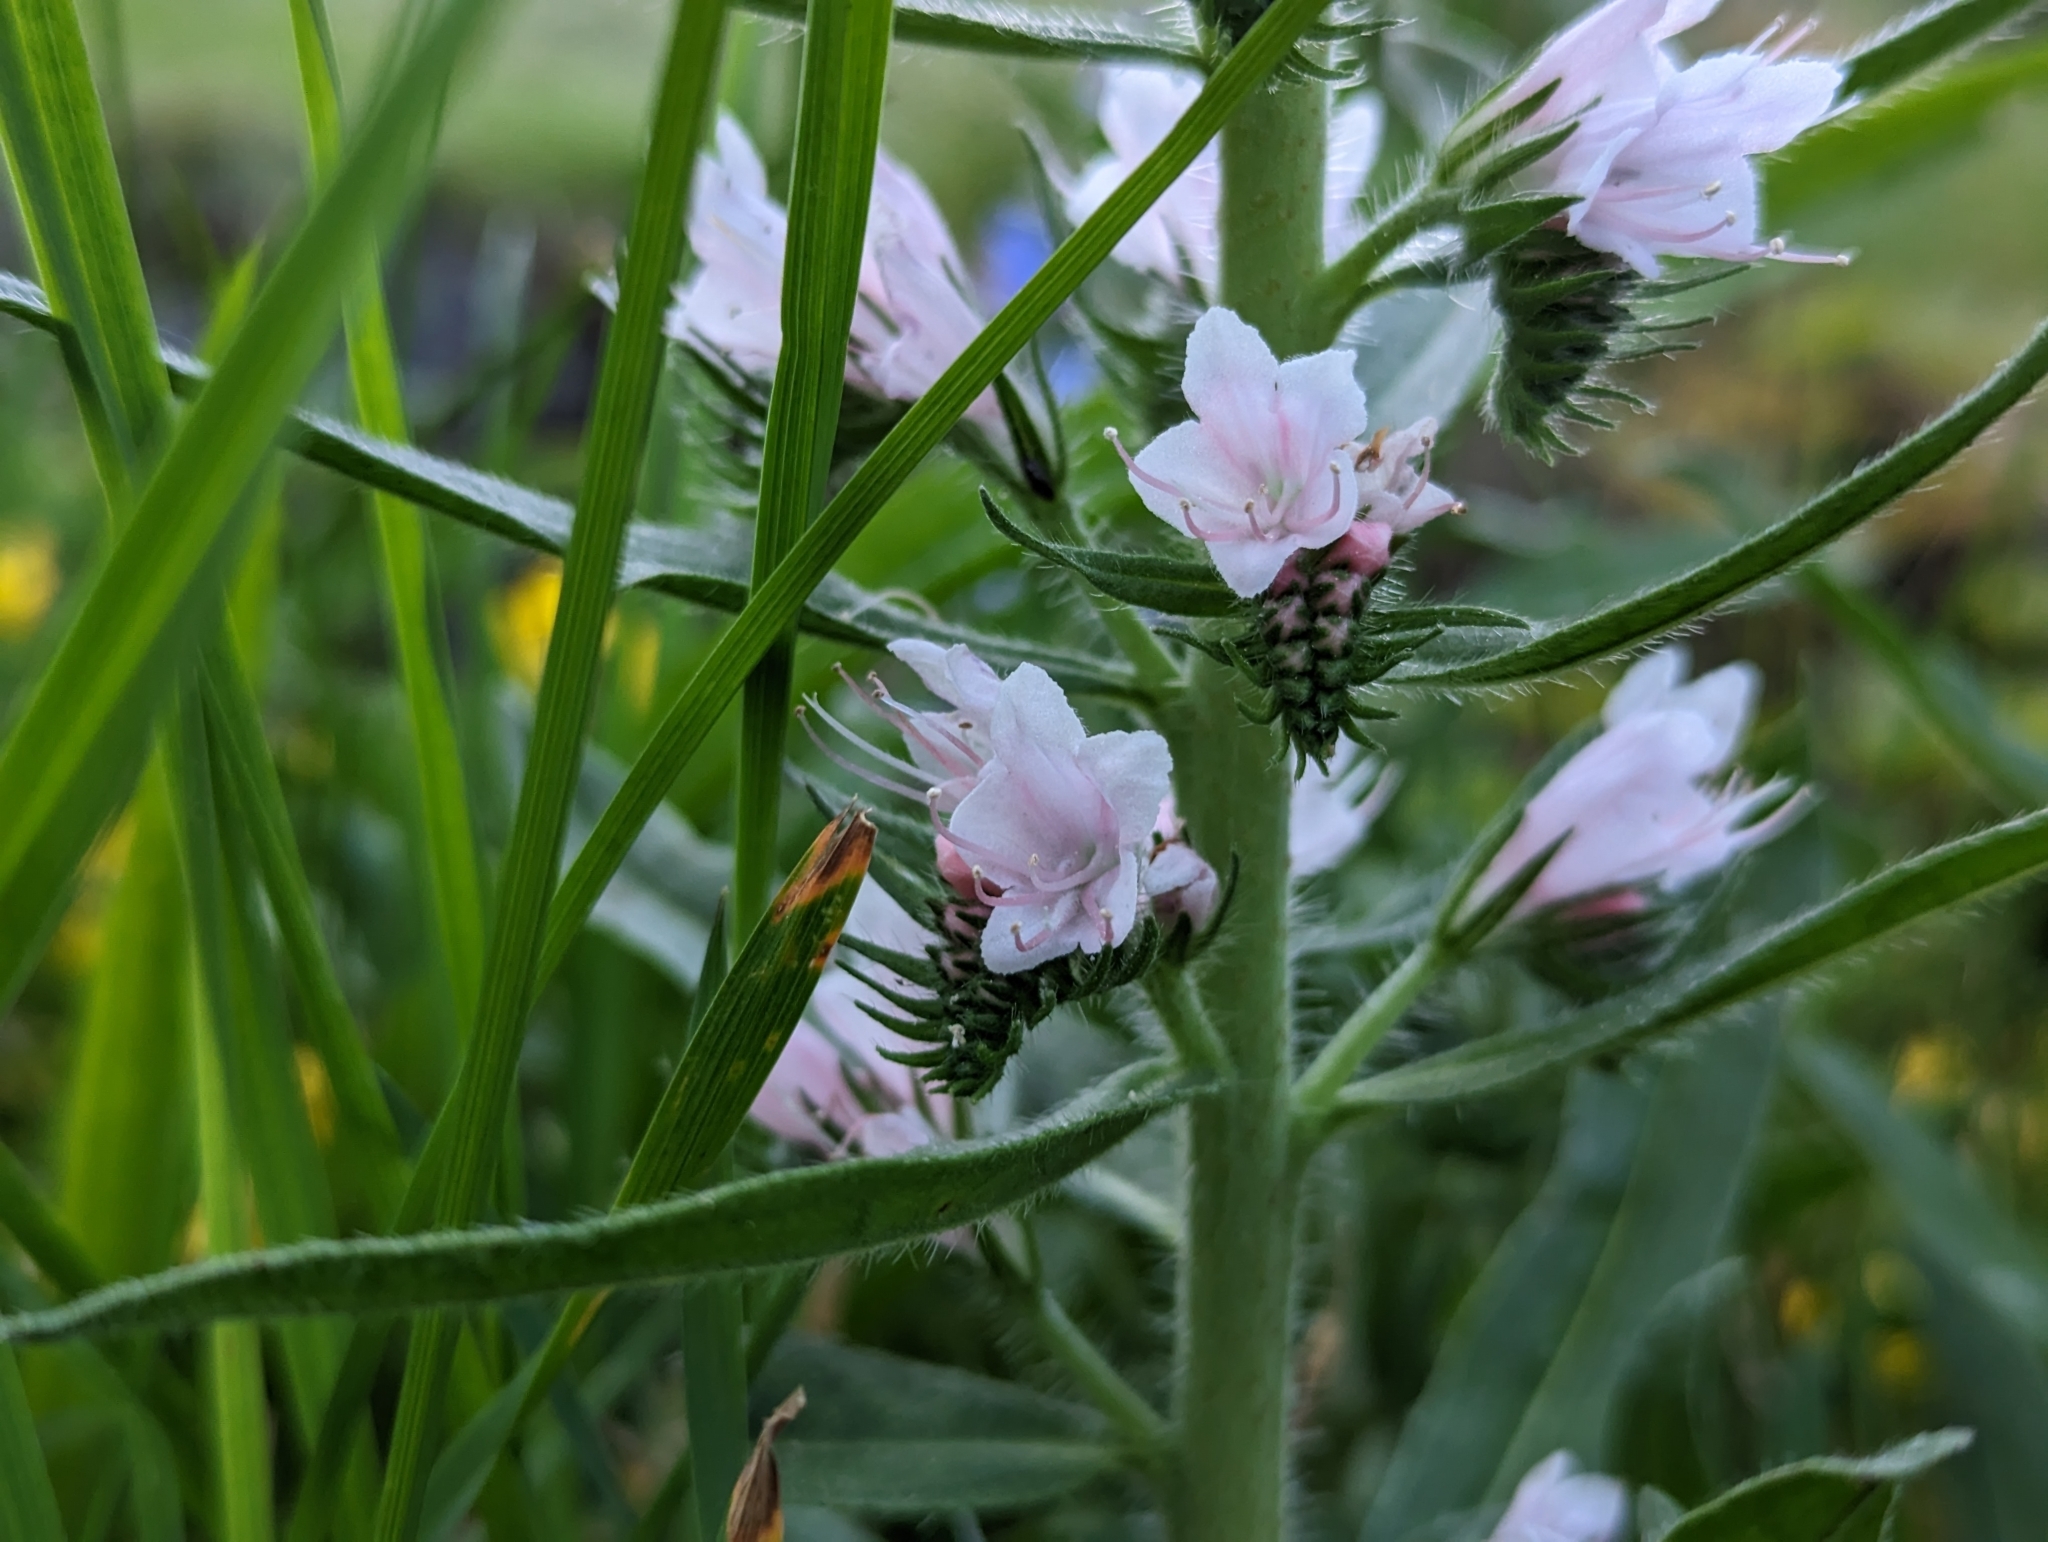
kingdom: Plantae
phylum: Tracheophyta
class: Magnoliopsida
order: Boraginales
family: Boraginaceae
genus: Echium
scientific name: Echium vulgare
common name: Common viper's bugloss
